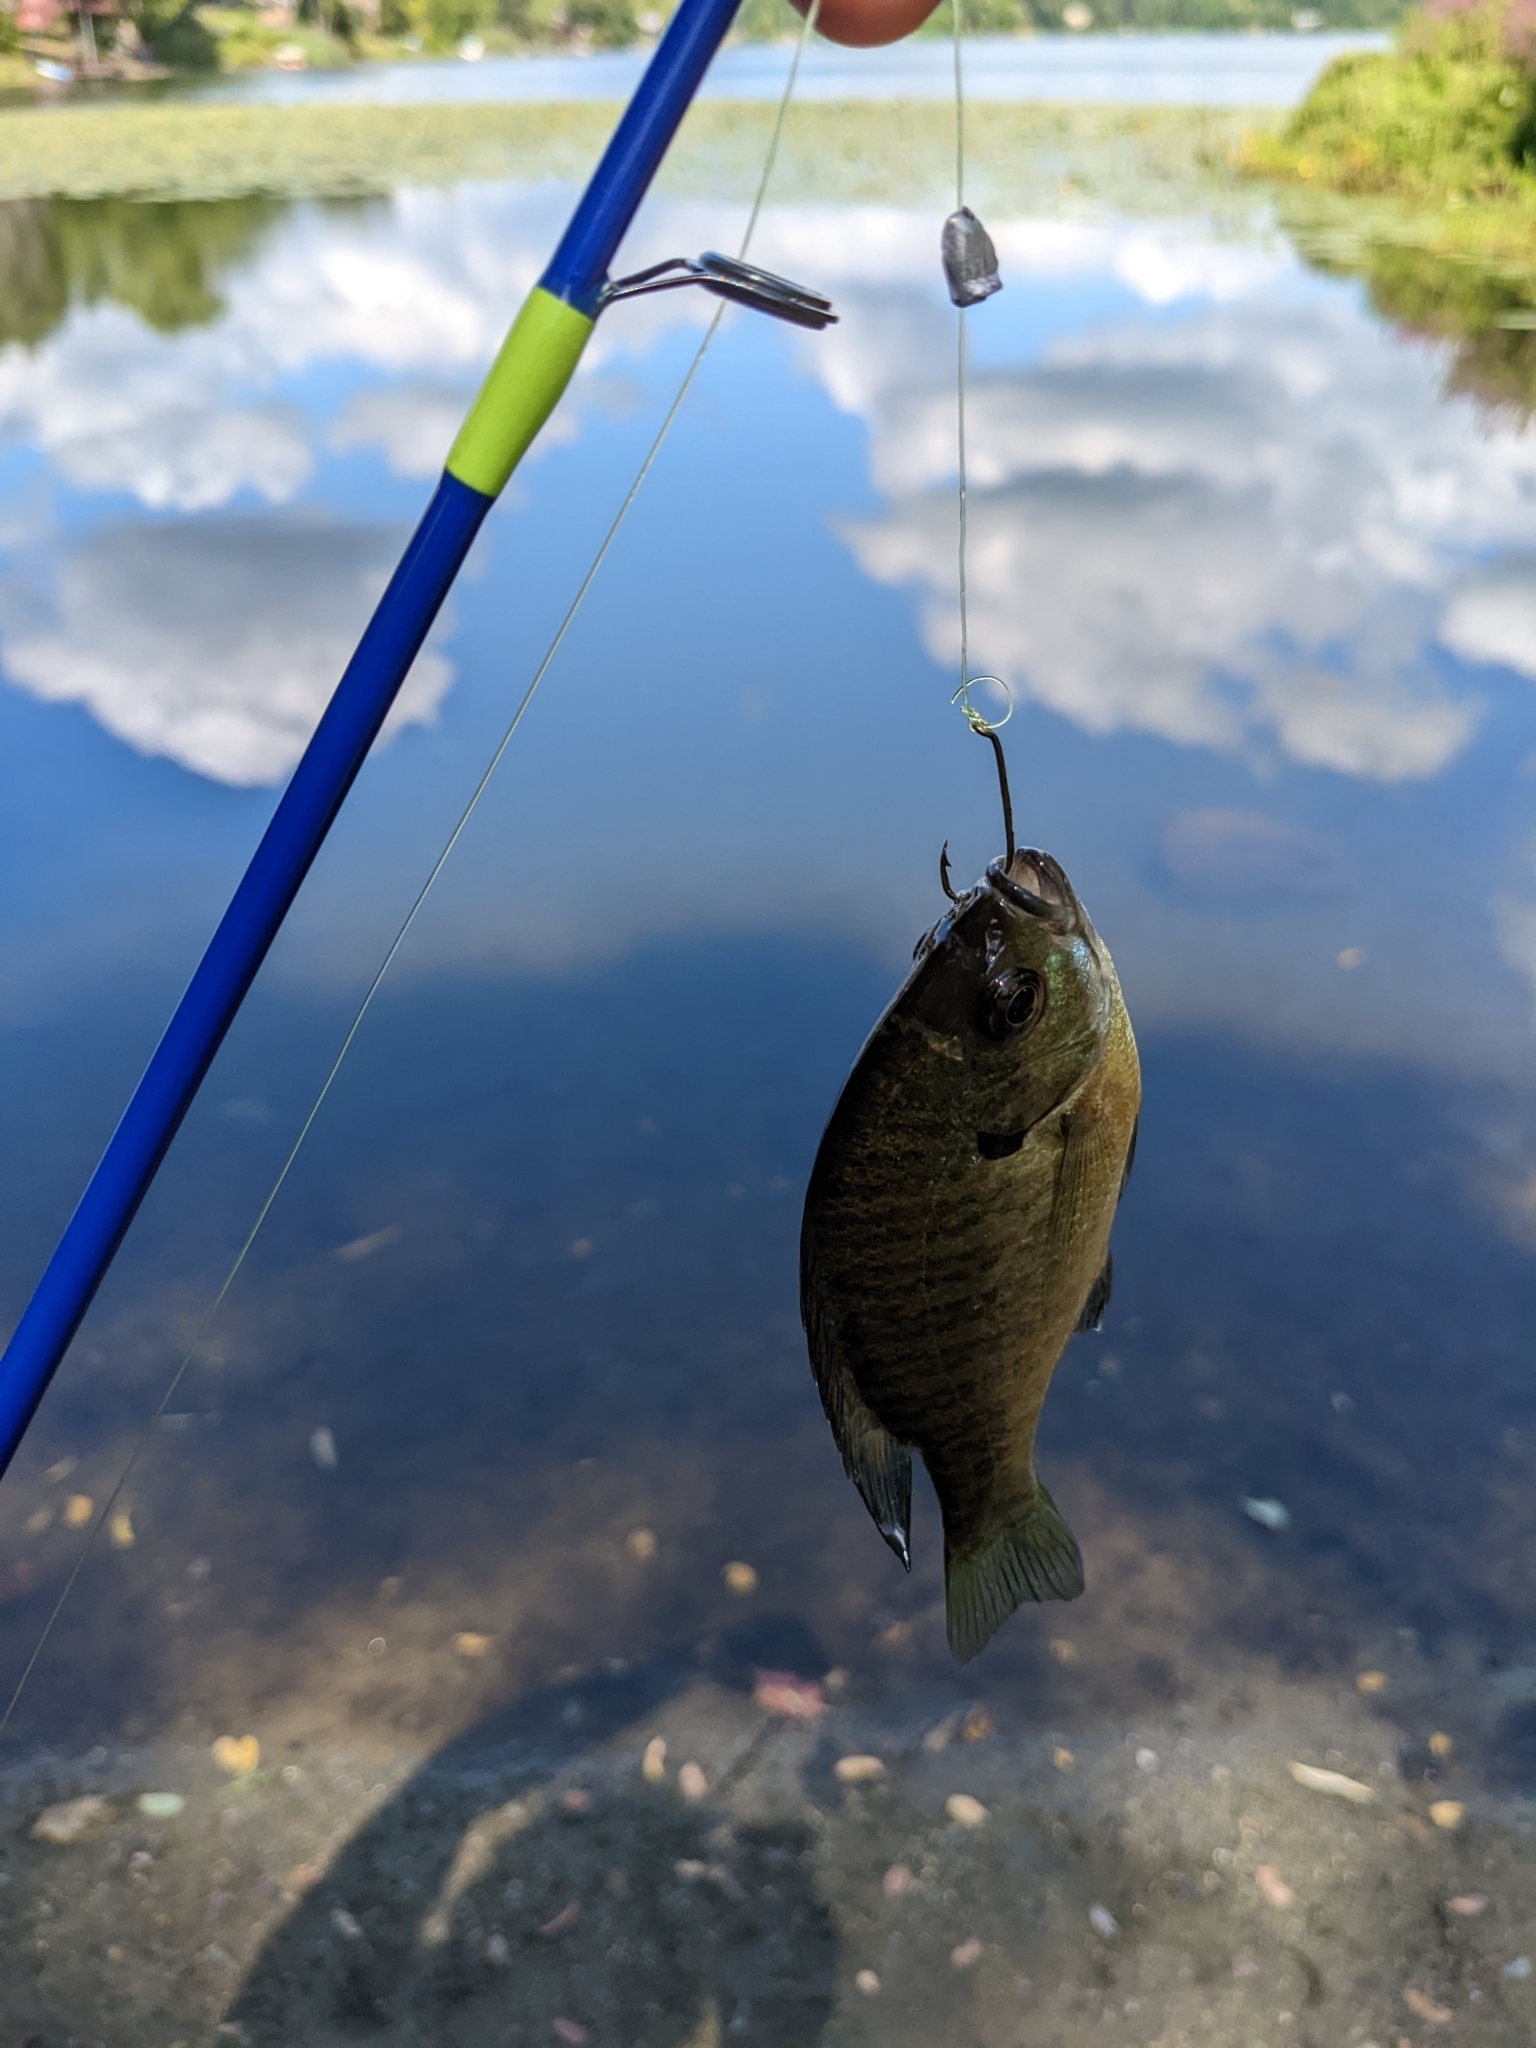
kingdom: Animalia
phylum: Chordata
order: Perciformes
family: Centrarchidae
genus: Lepomis
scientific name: Lepomis macrochirus
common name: Bluegill
